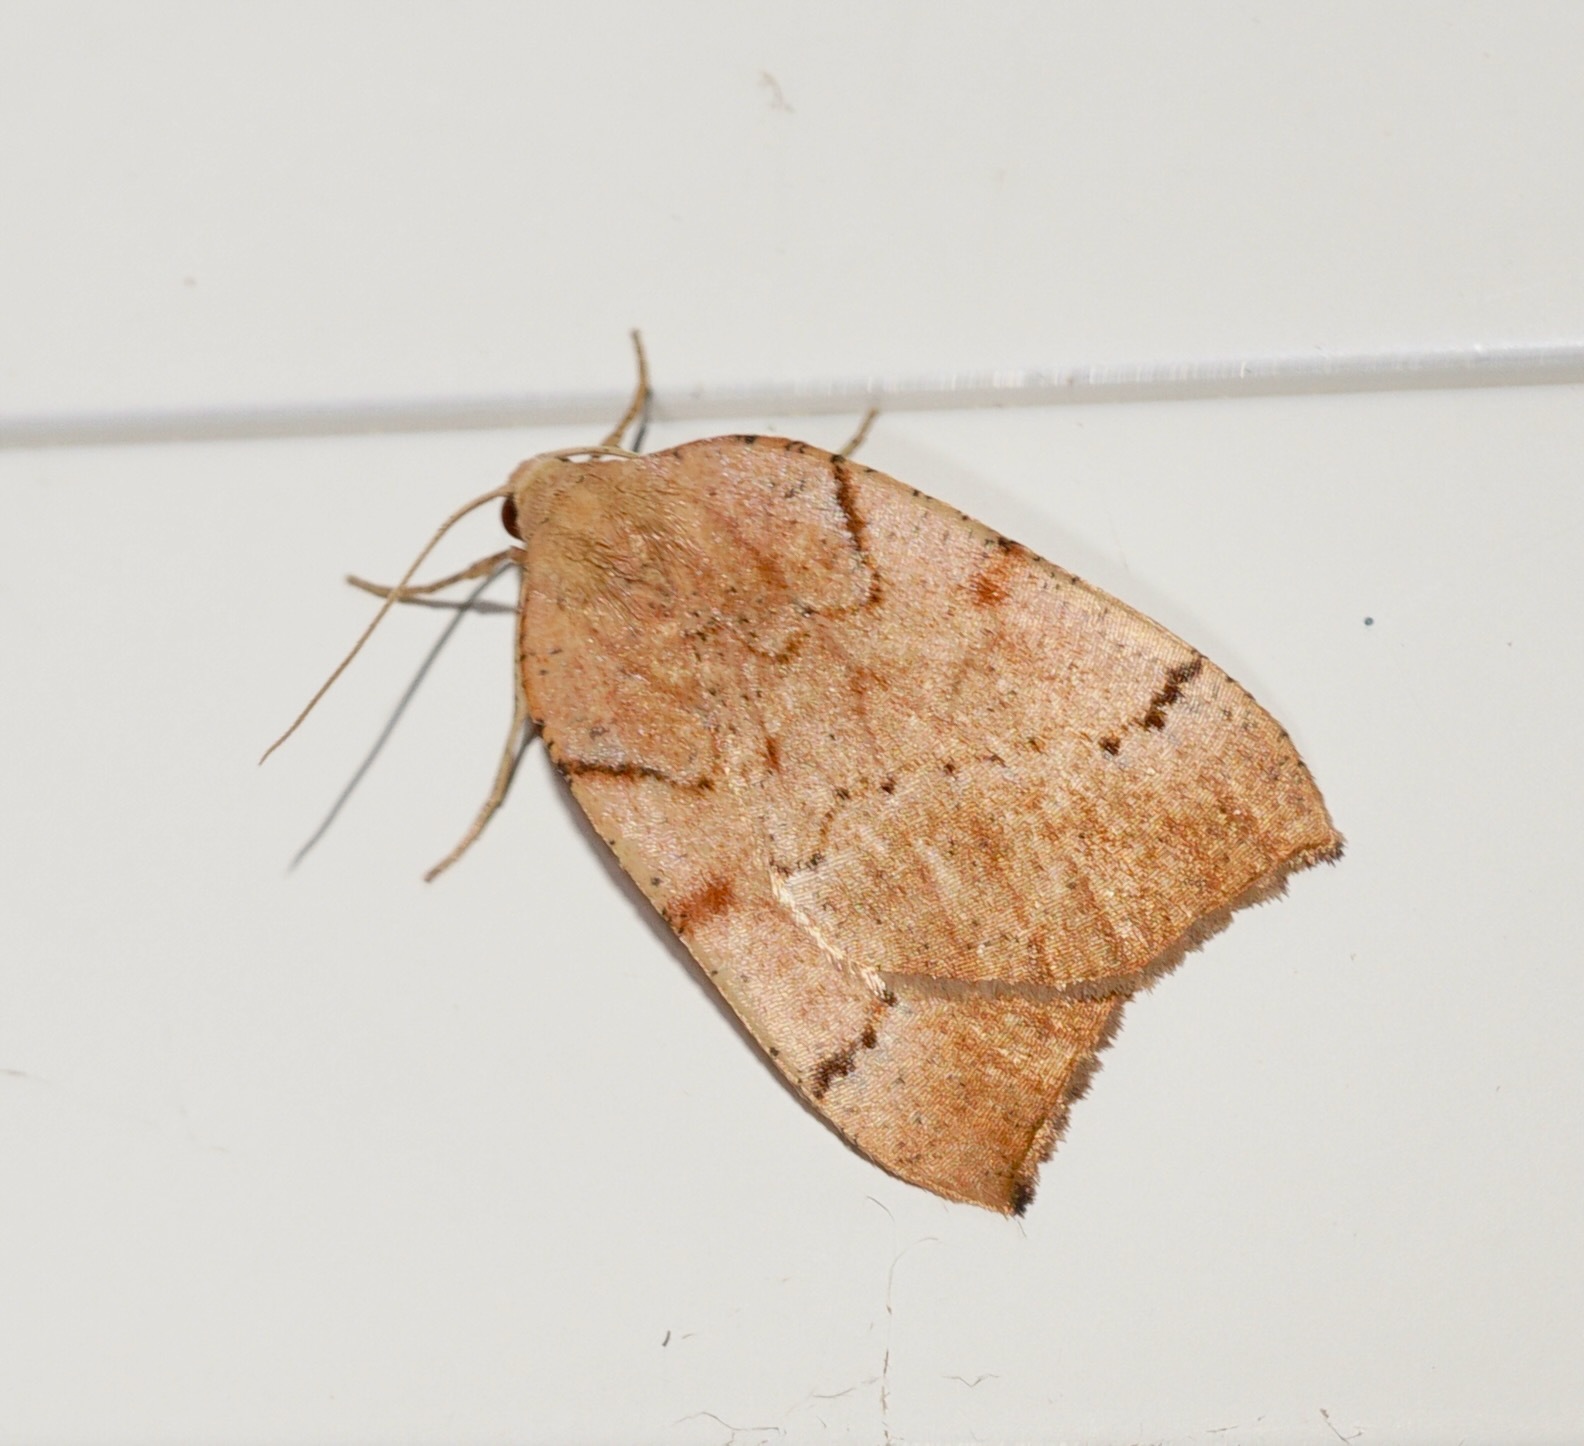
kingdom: Animalia
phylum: Arthropoda
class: Insecta
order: Lepidoptera
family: Geometridae
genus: Sestra
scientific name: Sestra humeraria
